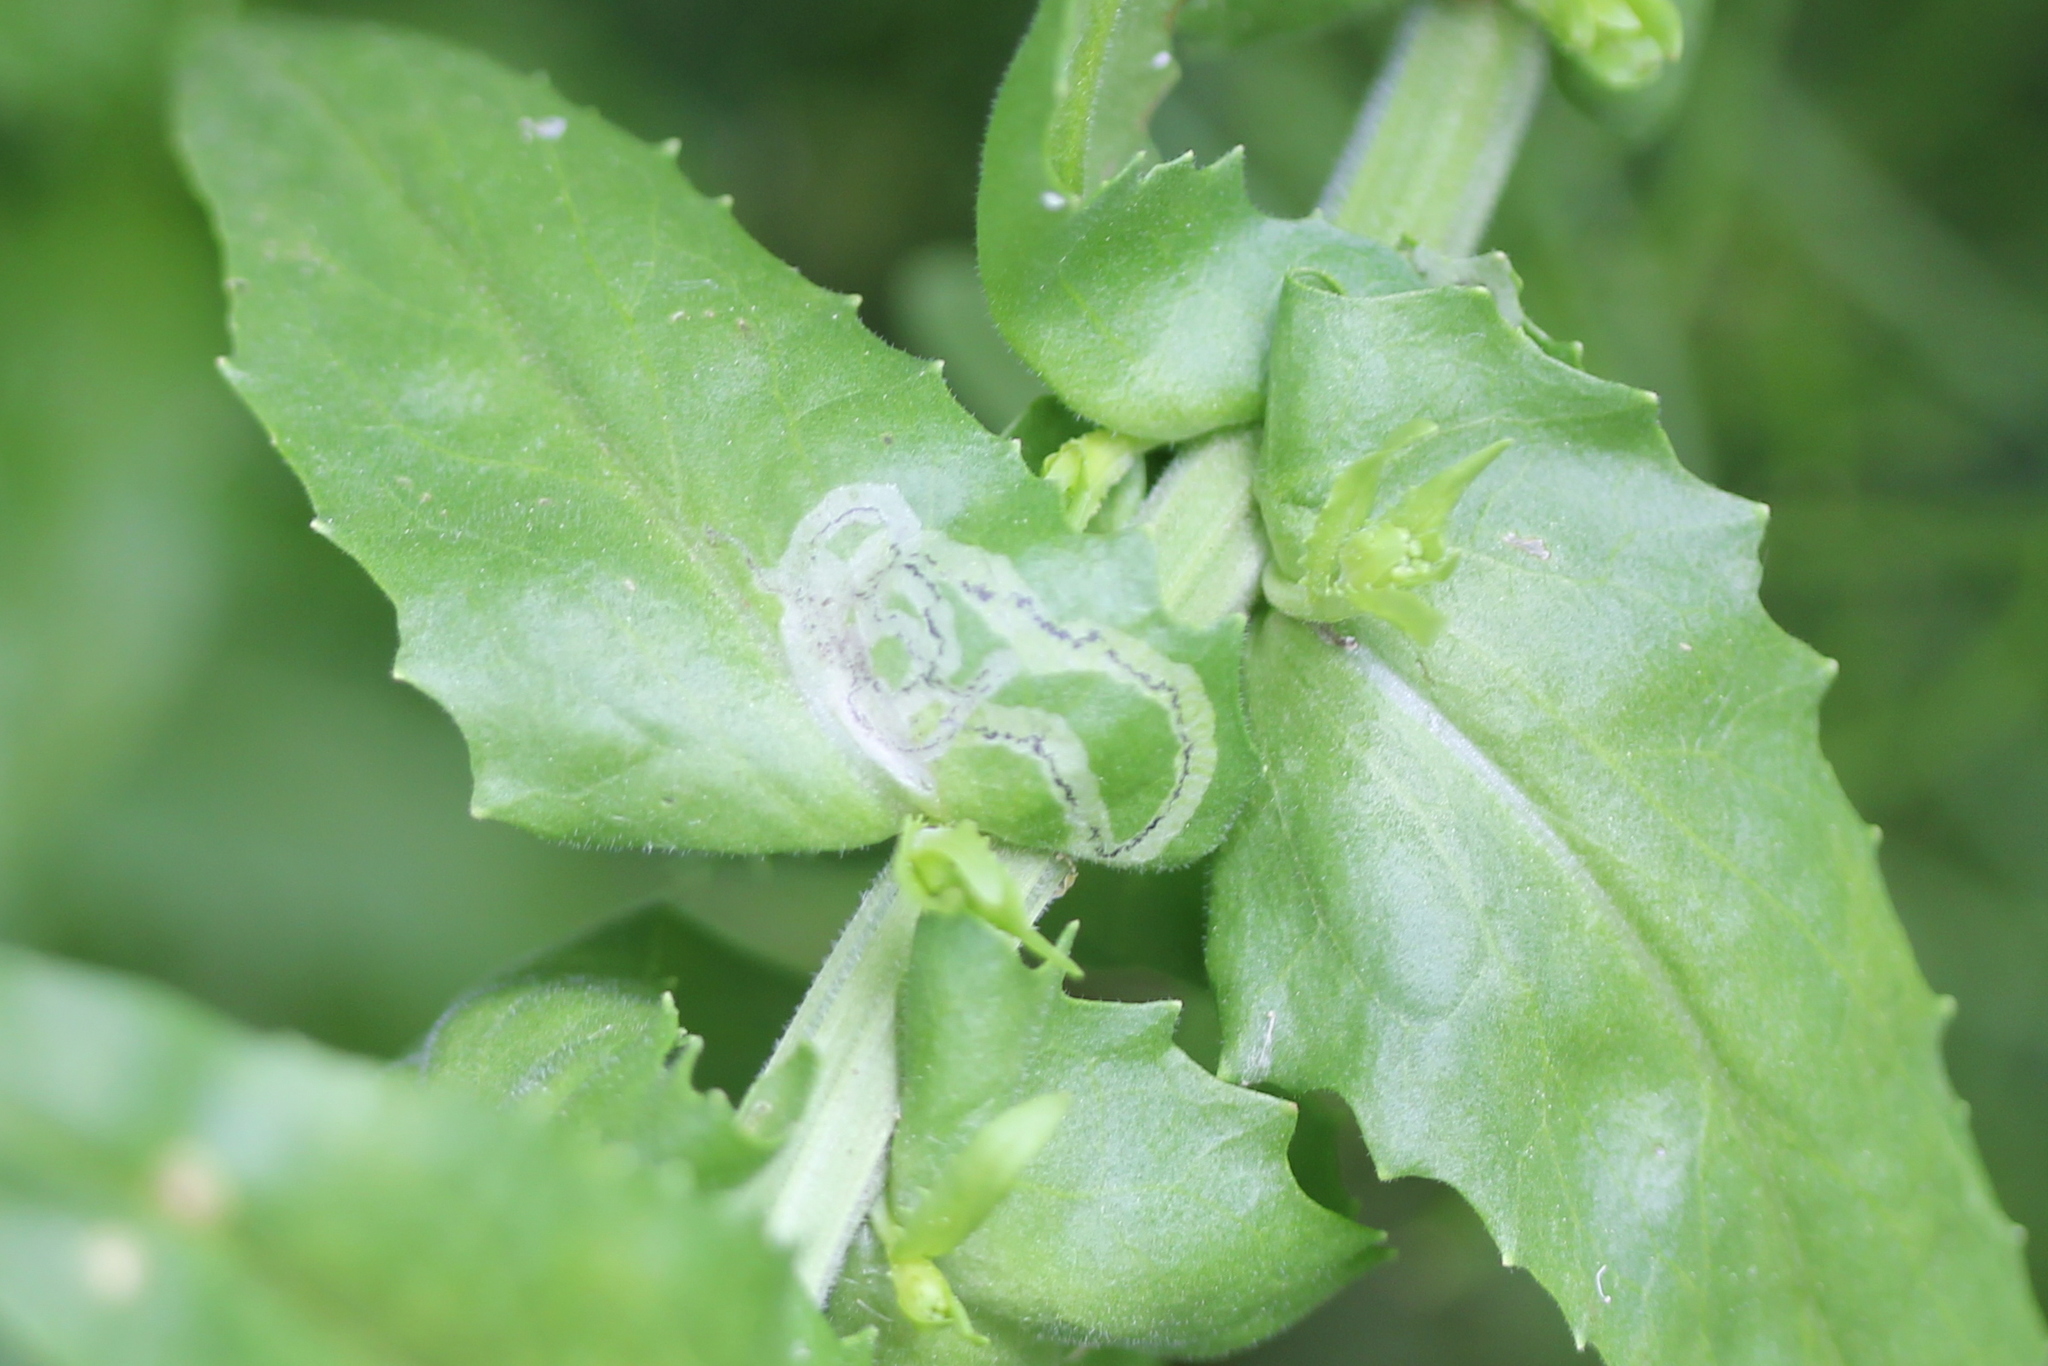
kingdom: Animalia
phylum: Arthropoda
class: Insecta
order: Diptera
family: Agromyzidae
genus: Liriomyza
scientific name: Liriomyza brassicae
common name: Serpentine leaf miner
